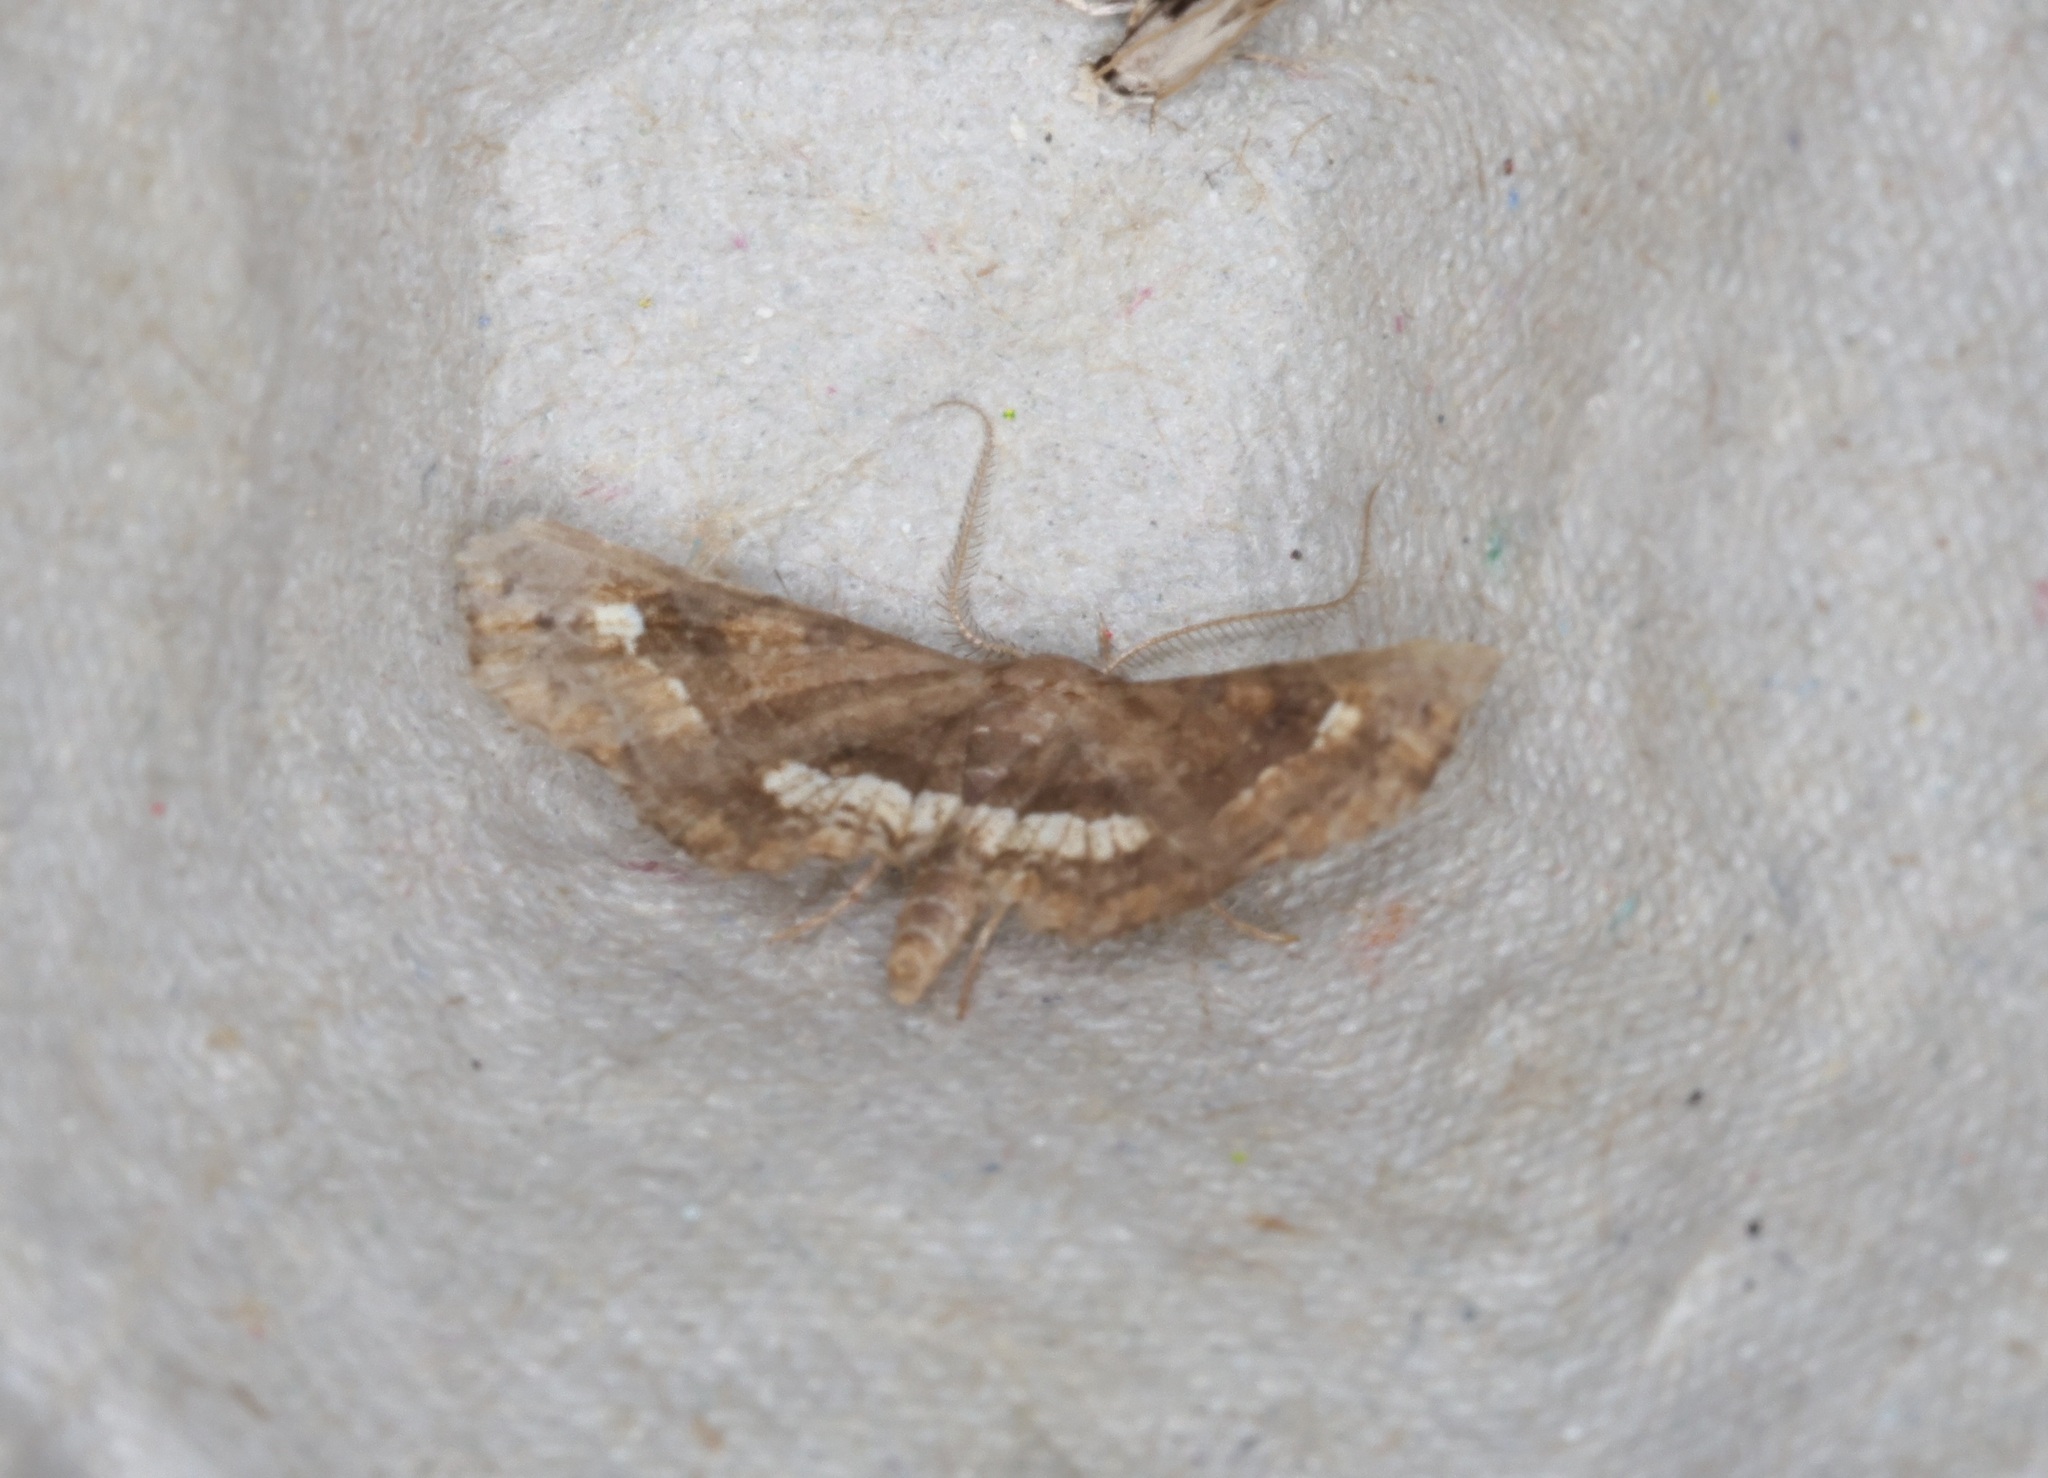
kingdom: Animalia
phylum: Arthropoda
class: Insecta
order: Lepidoptera
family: Erebidae
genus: Throana
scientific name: Throana pectinifer
